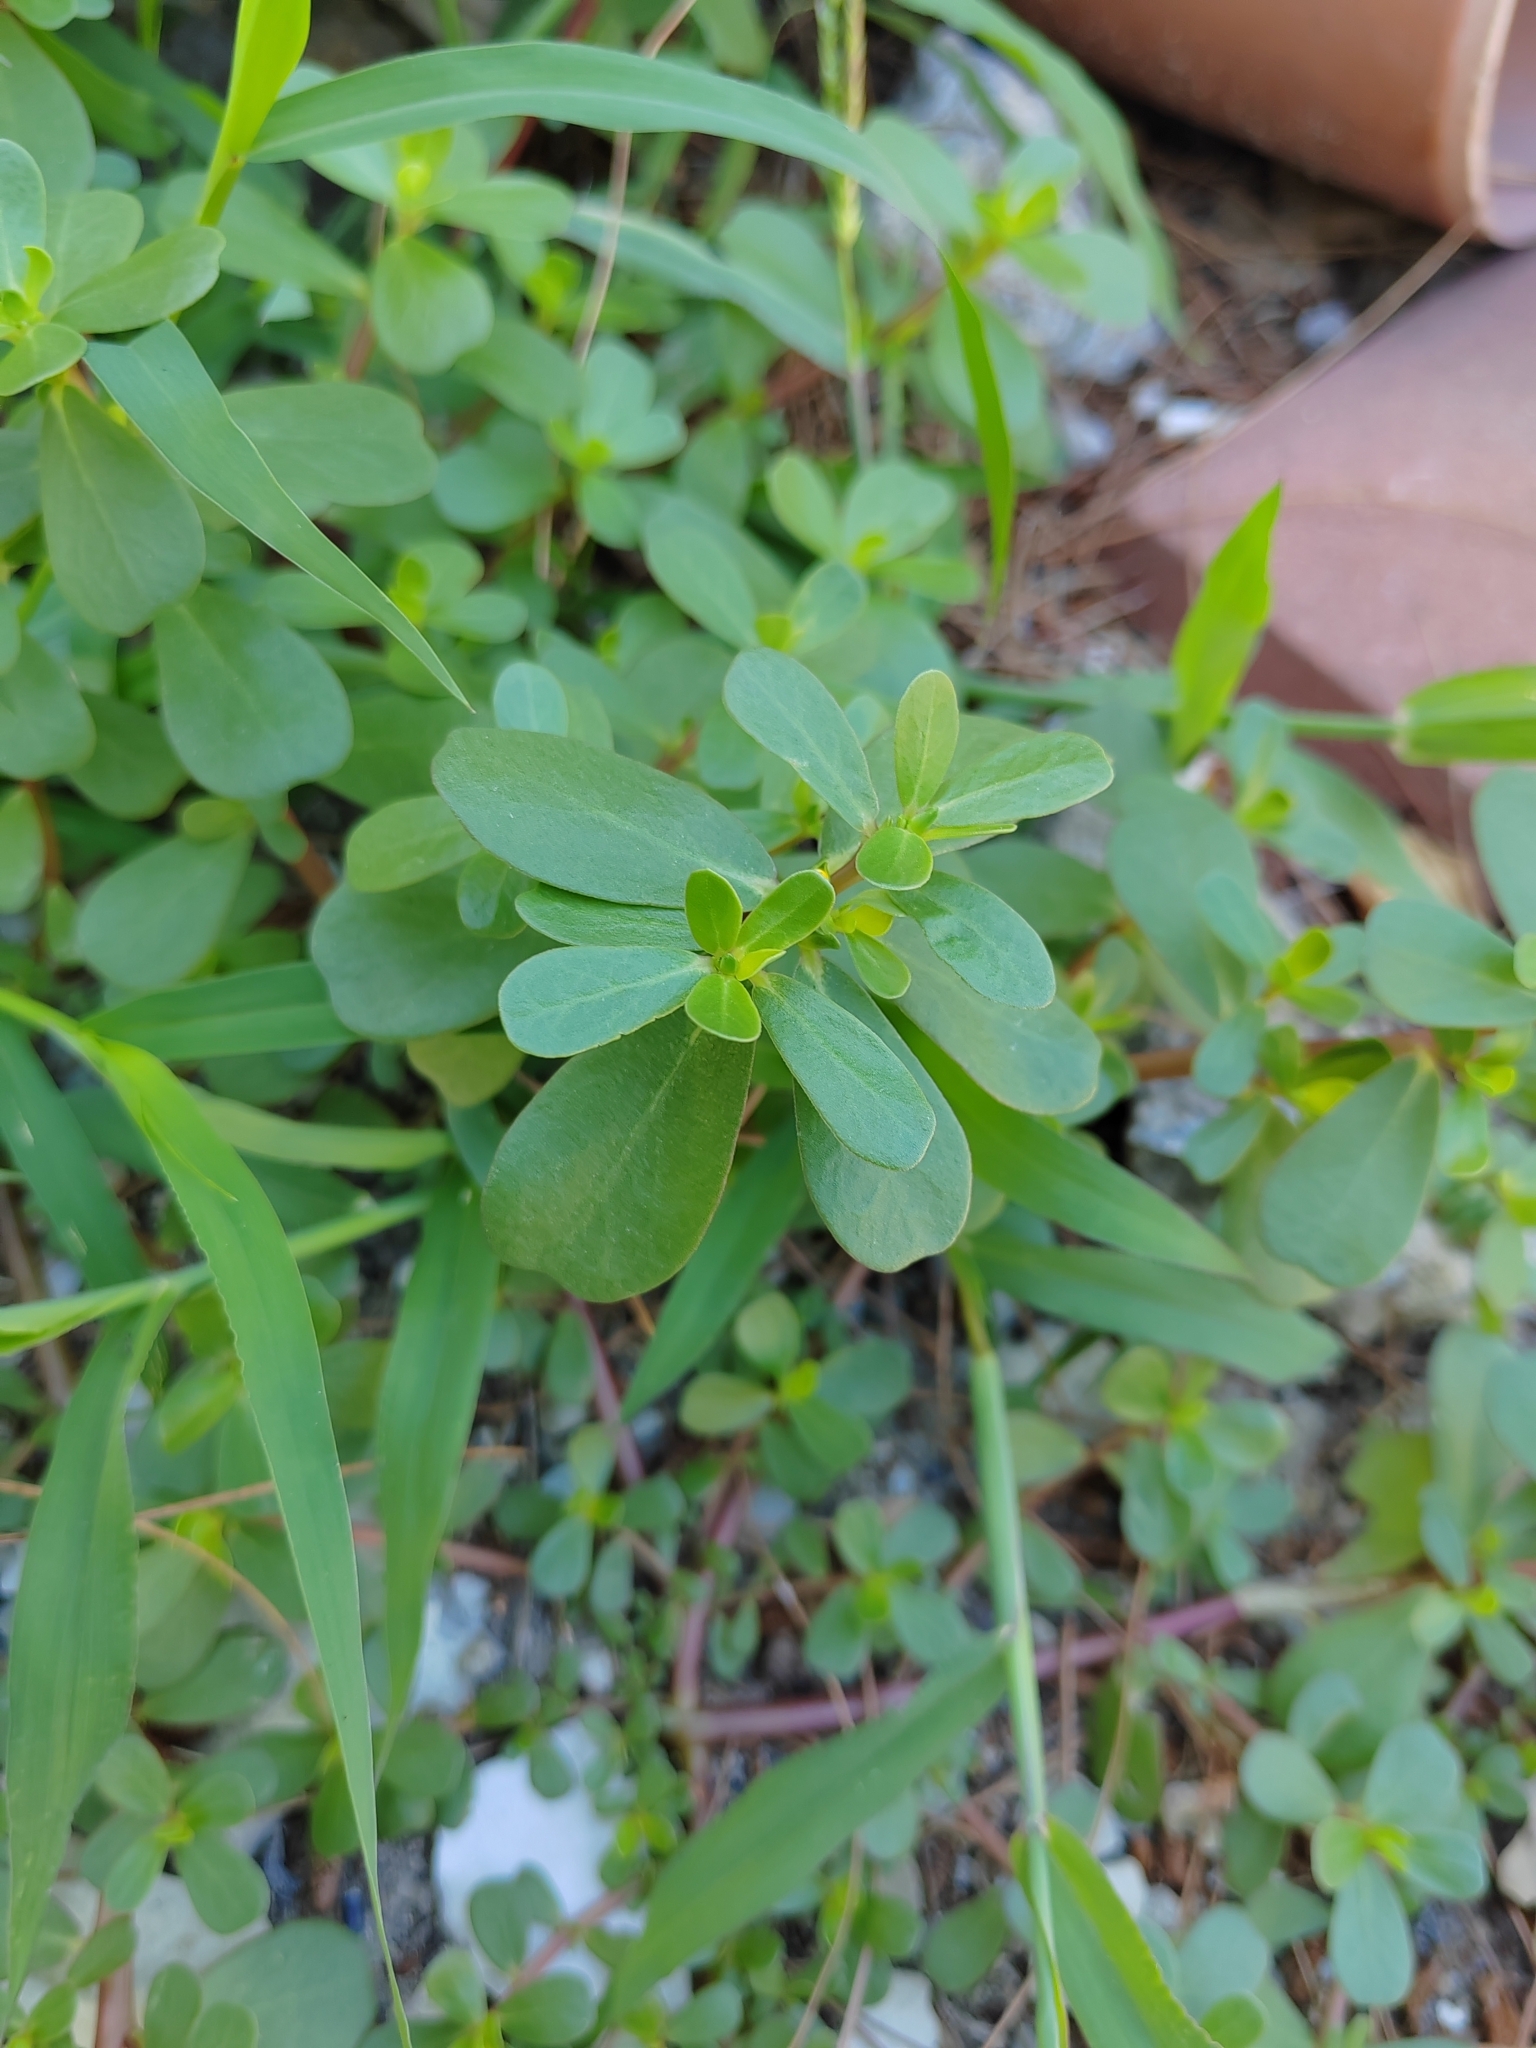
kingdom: Plantae
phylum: Tracheophyta
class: Magnoliopsida
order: Caryophyllales
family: Portulacaceae
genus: Portulaca
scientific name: Portulaca oleracea
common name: Common purslane
